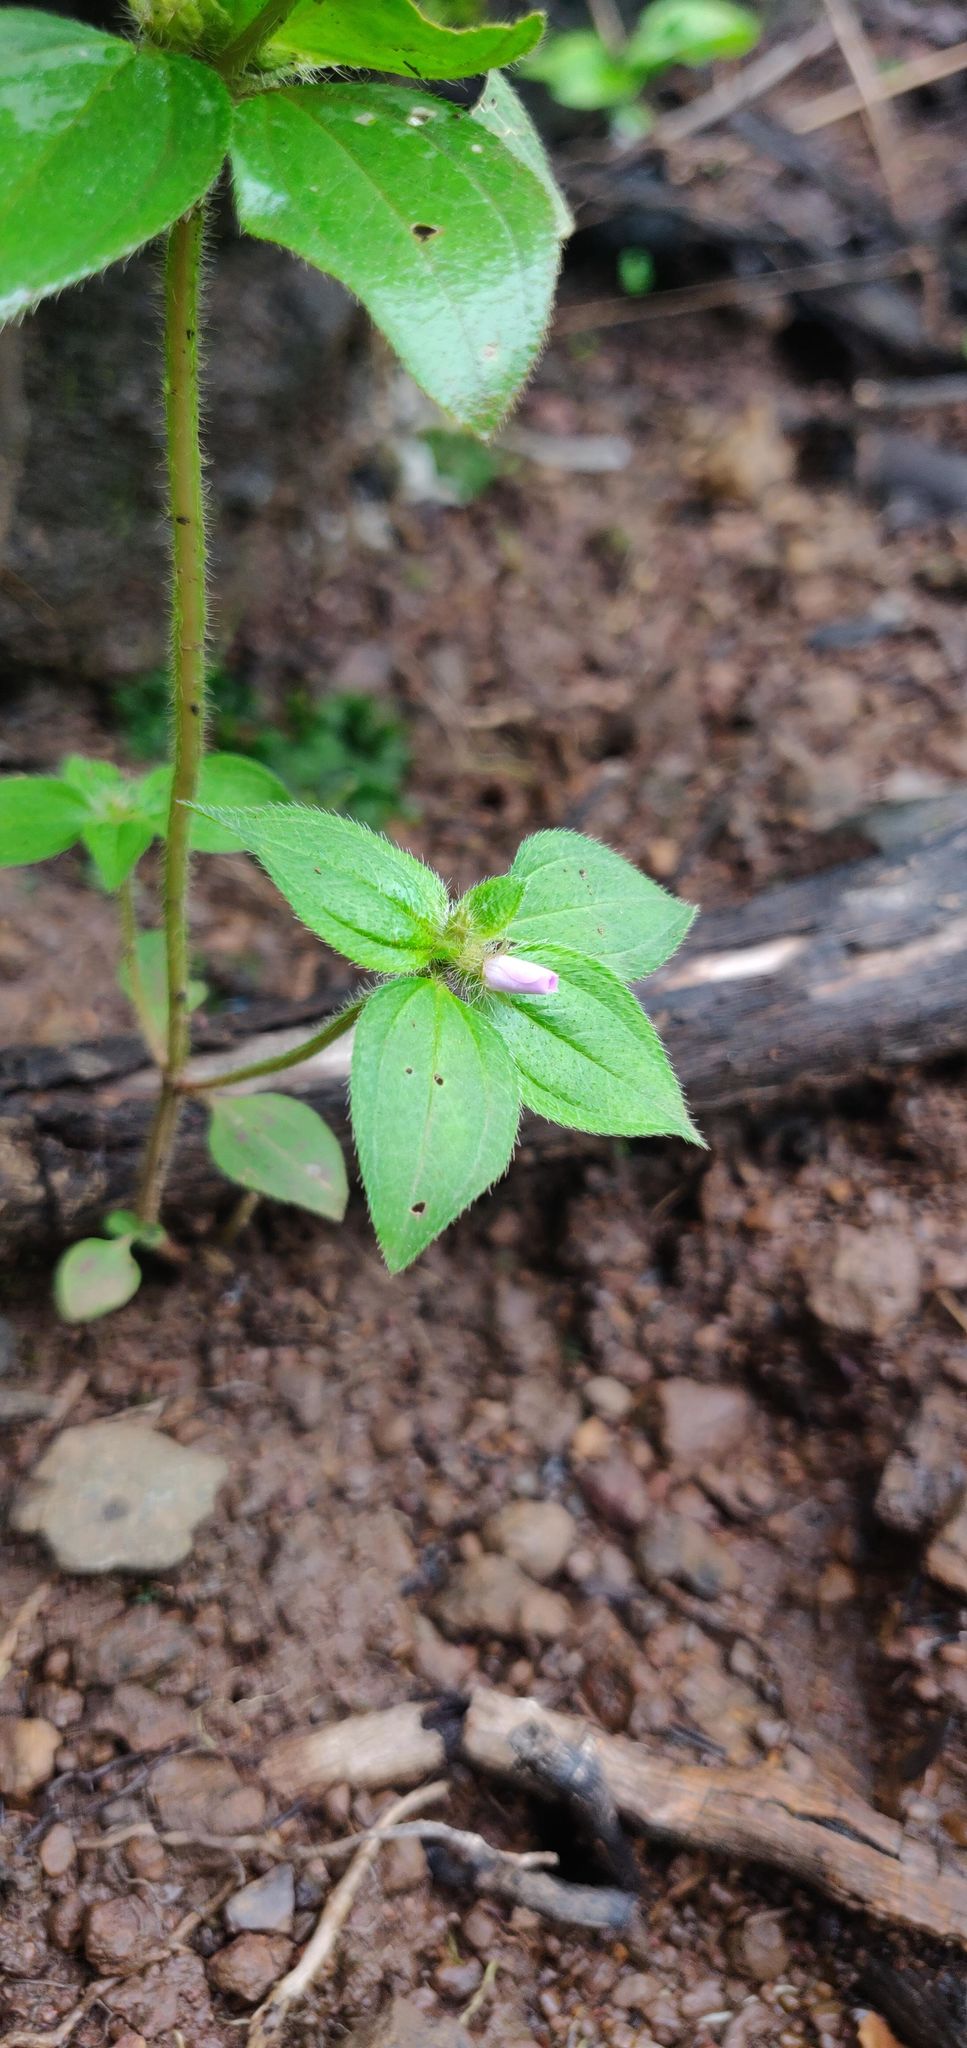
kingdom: Plantae
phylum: Tracheophyta
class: Magnoliopsida
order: Myrtales
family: Melastomataceae
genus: Osbeckia
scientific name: Osbeckia muralis
